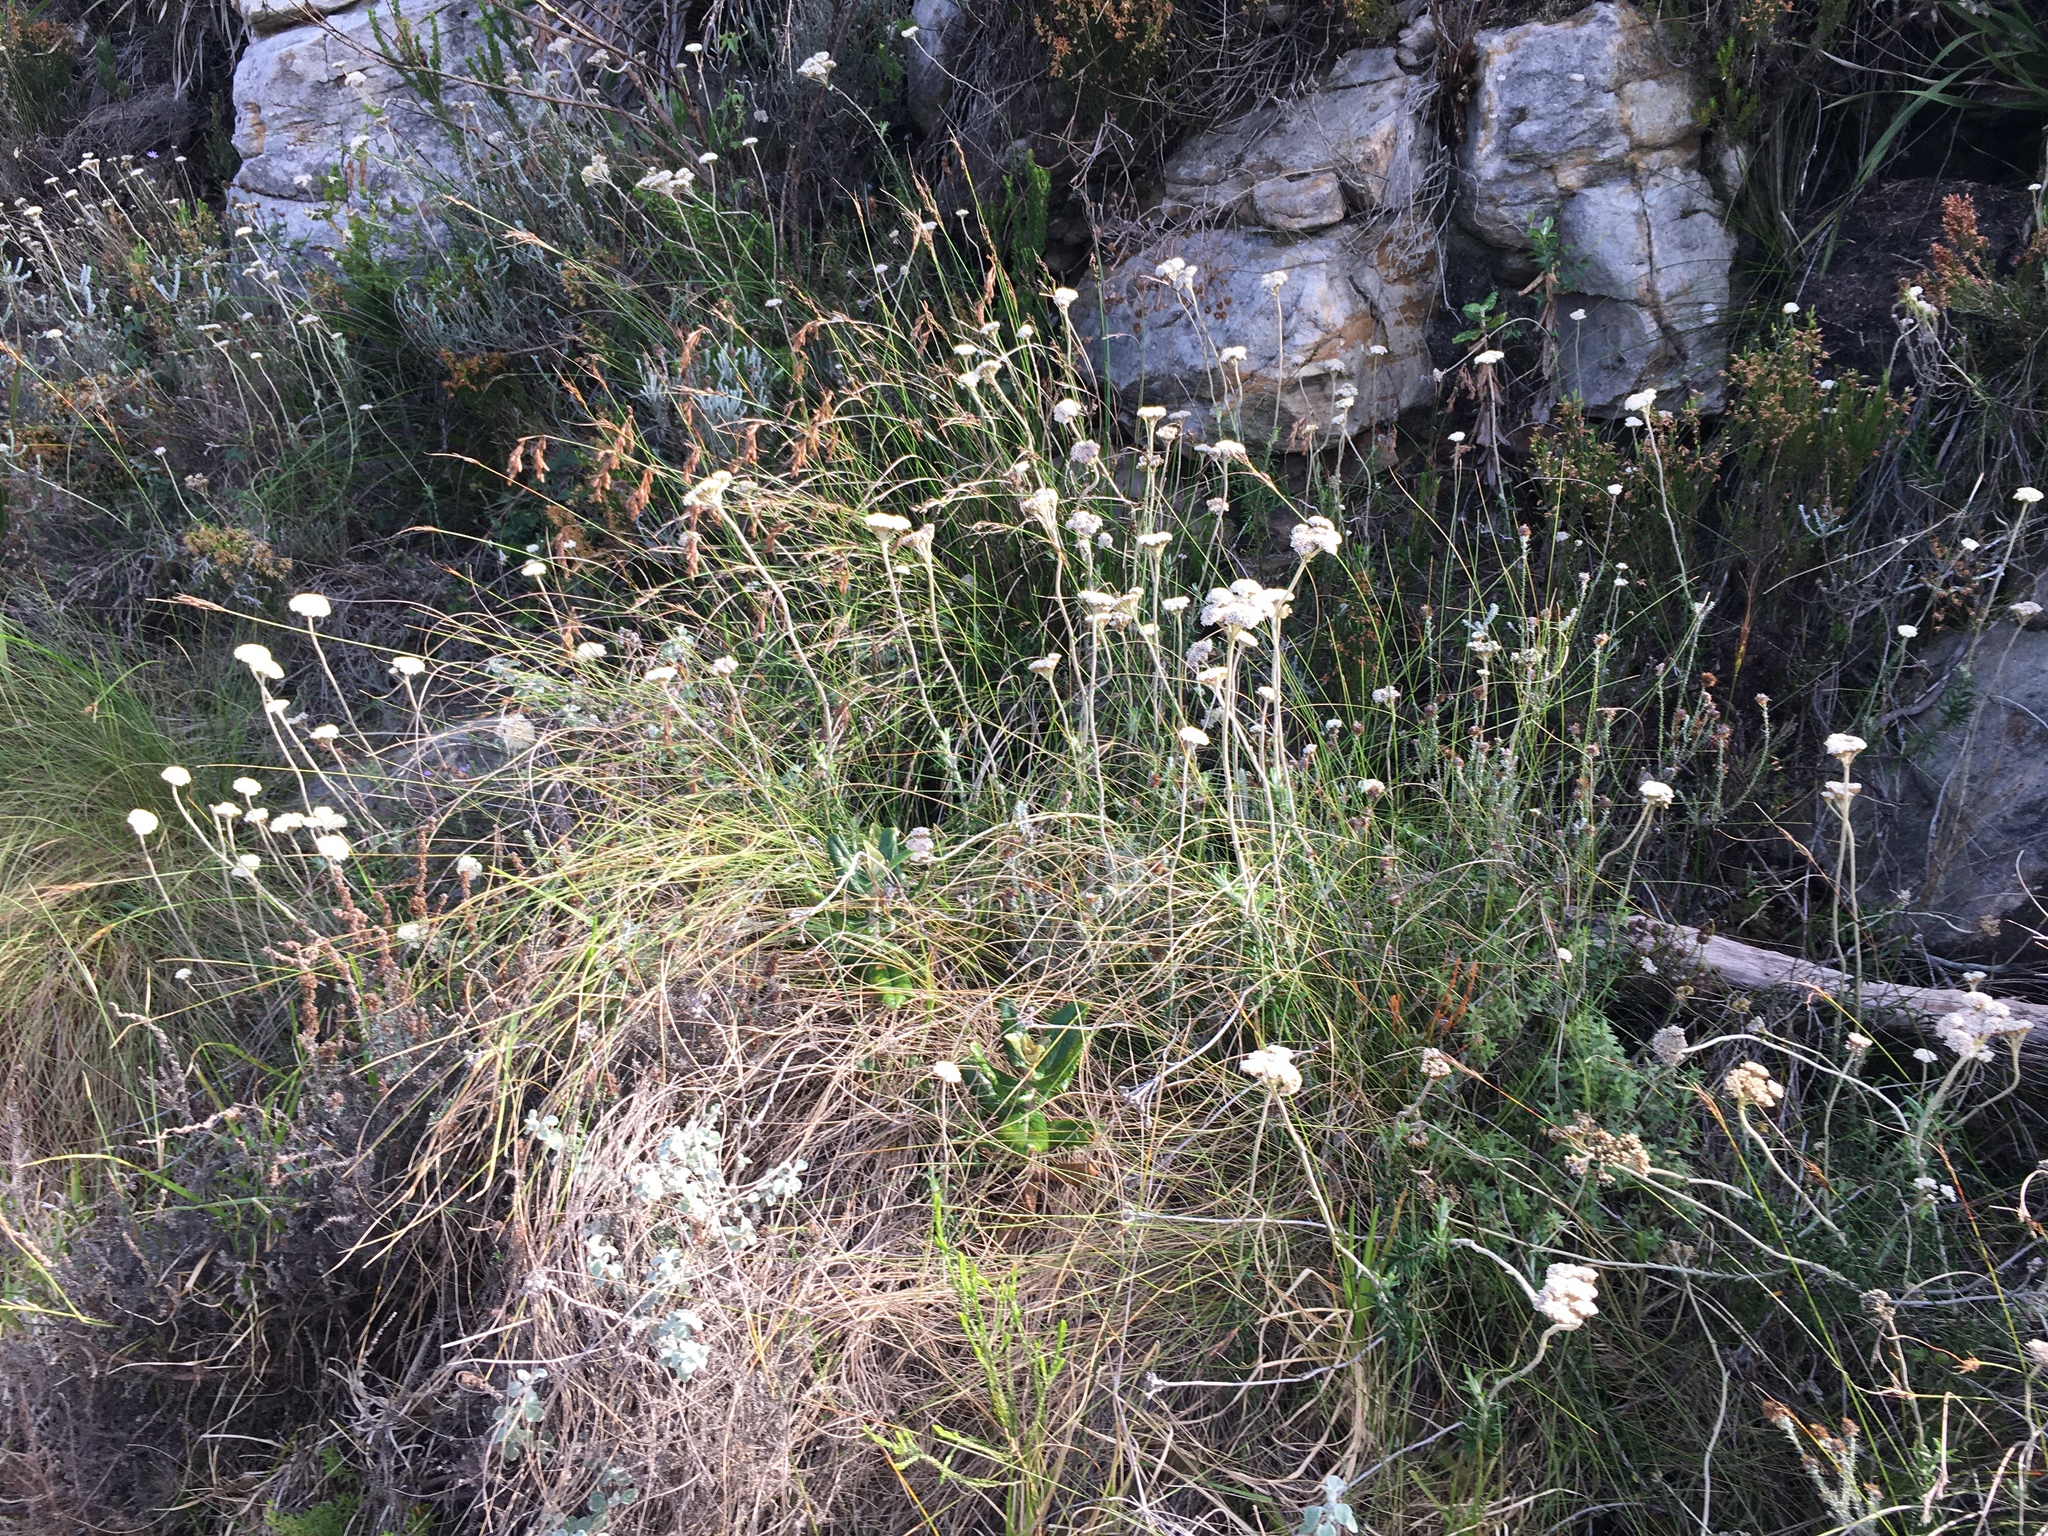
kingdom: Plantae
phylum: Tracheophyta
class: Magnoliopsida
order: Asterales
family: Asteraceae
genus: Anaxeton
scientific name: Anaxeton arborescens
